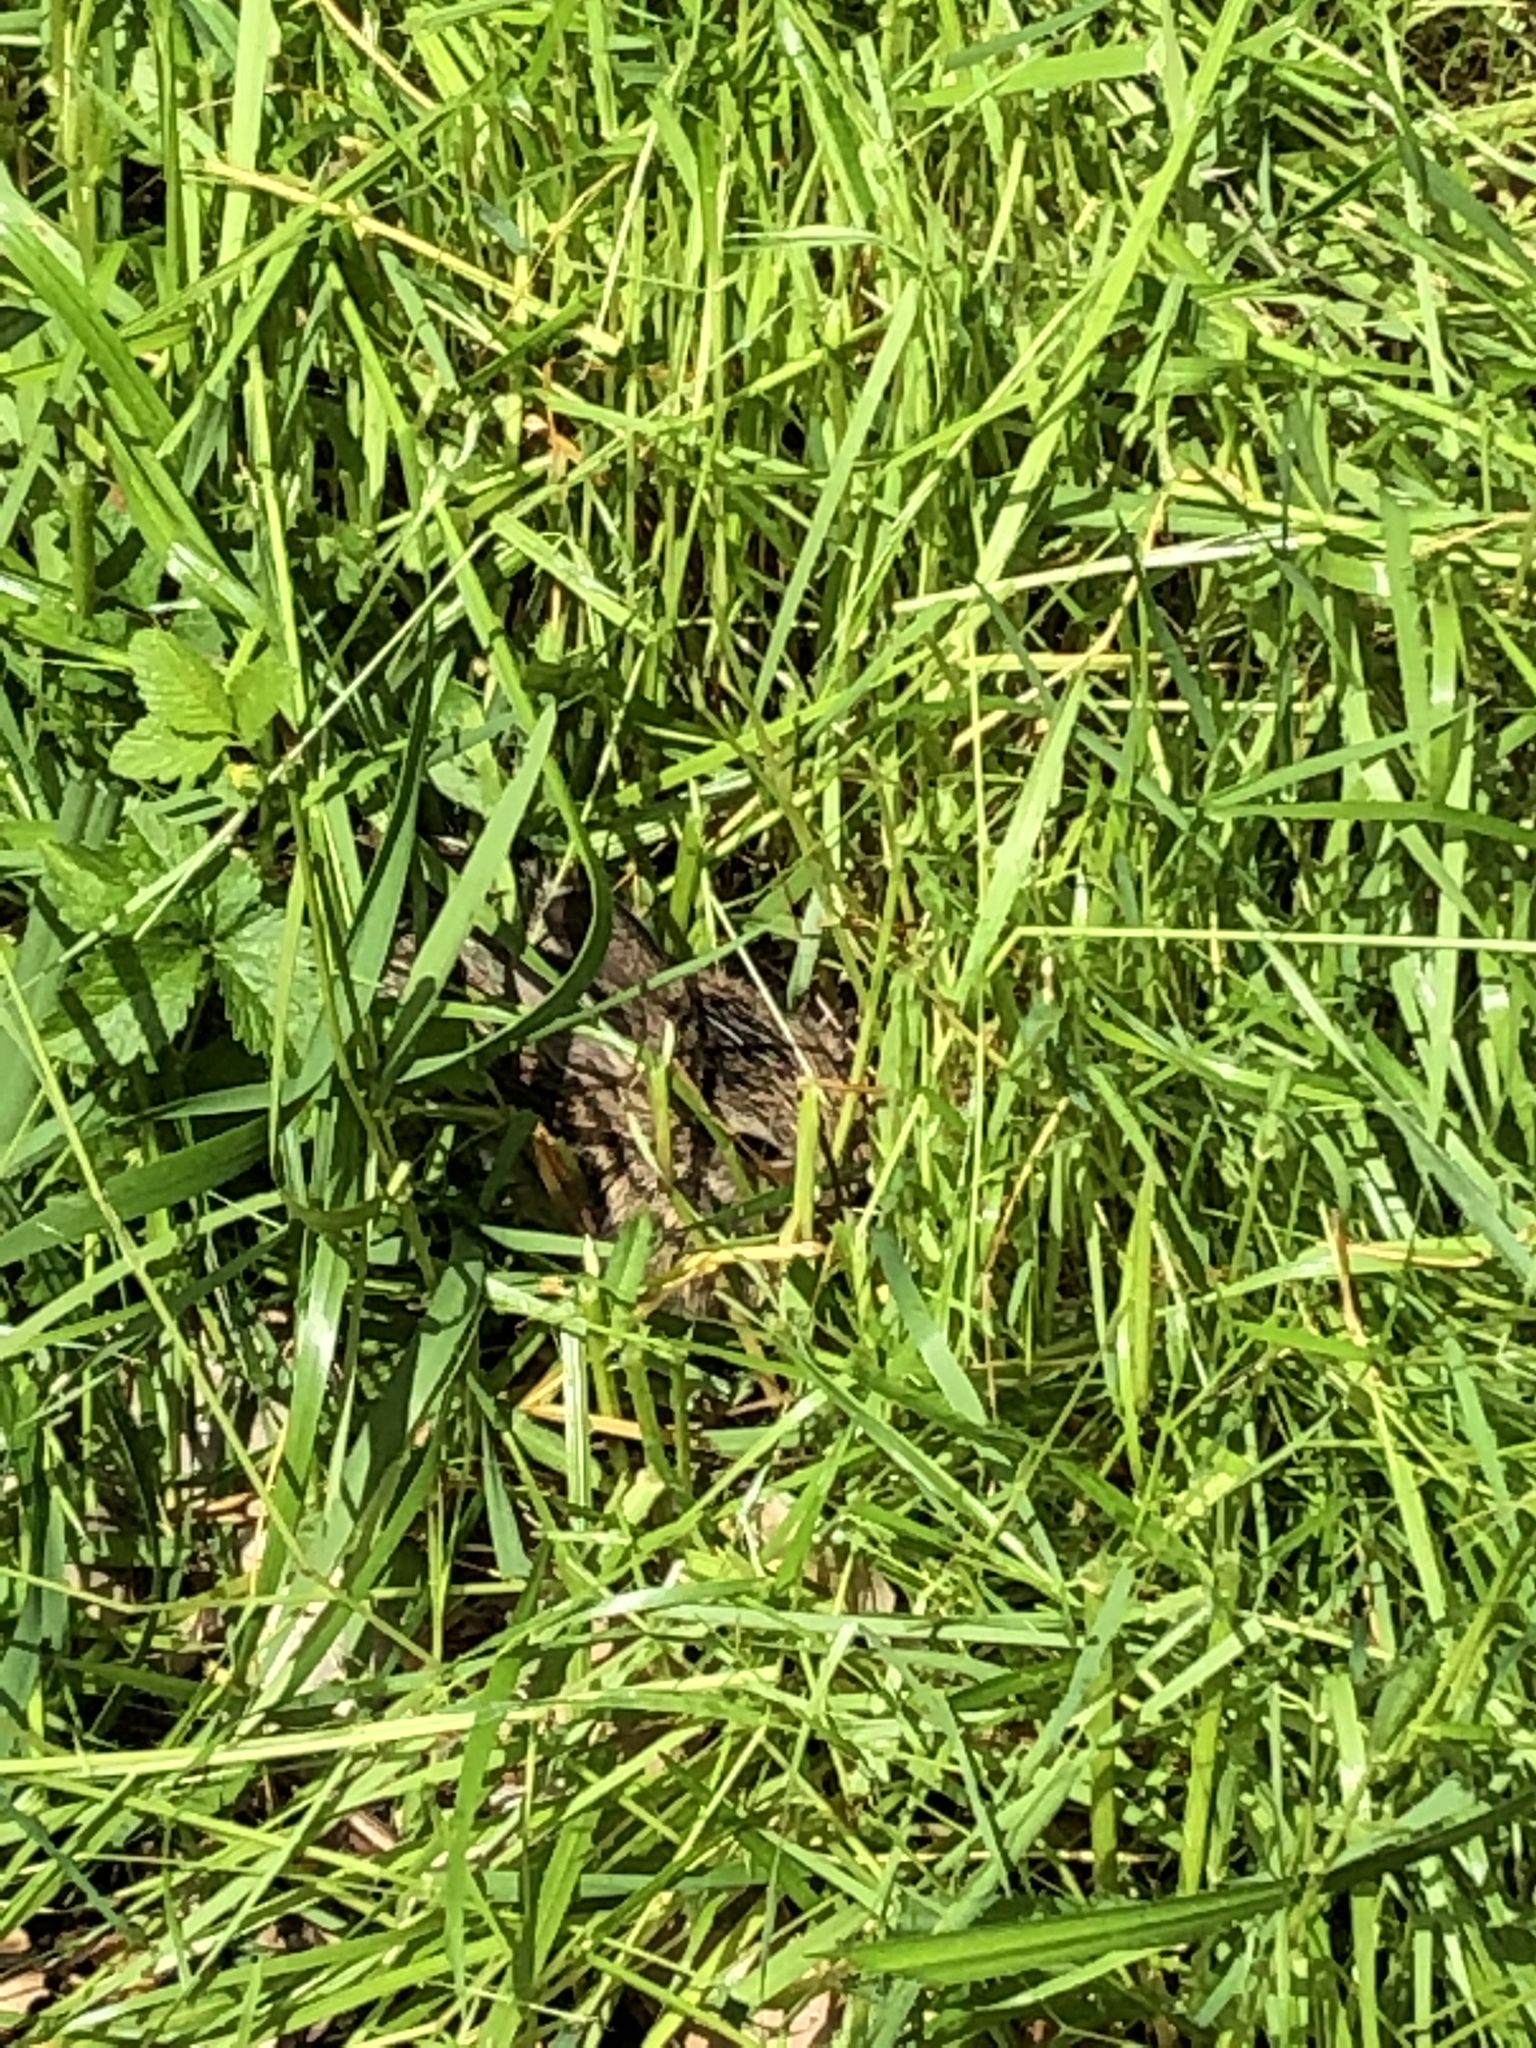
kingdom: Animalia
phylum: Chordata
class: Mammalia
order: Lagomorpha
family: Leporidae
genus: Sylvilagus
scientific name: Sylvilagus floridanus
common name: Eastern cottontail
